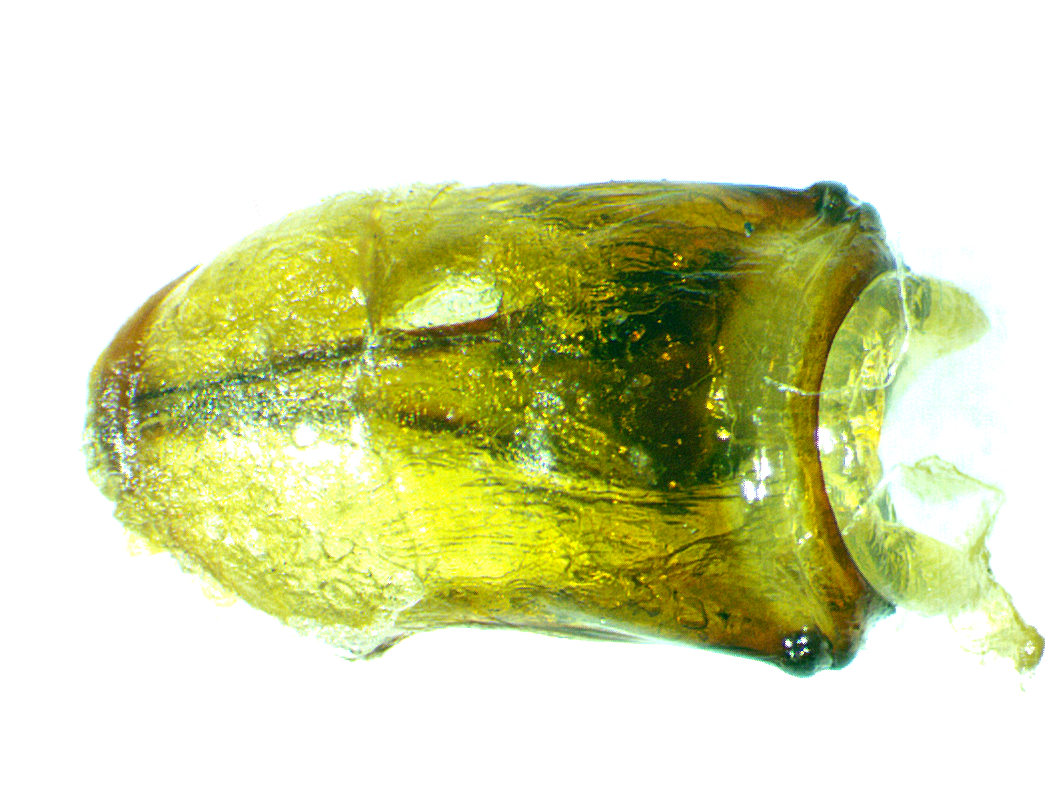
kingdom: Animalia
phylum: Arthropoda
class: Insecta
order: Coleoptera
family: Scarabaeidae
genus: Phyllophaga
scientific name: Phyllophaga obsoleta
